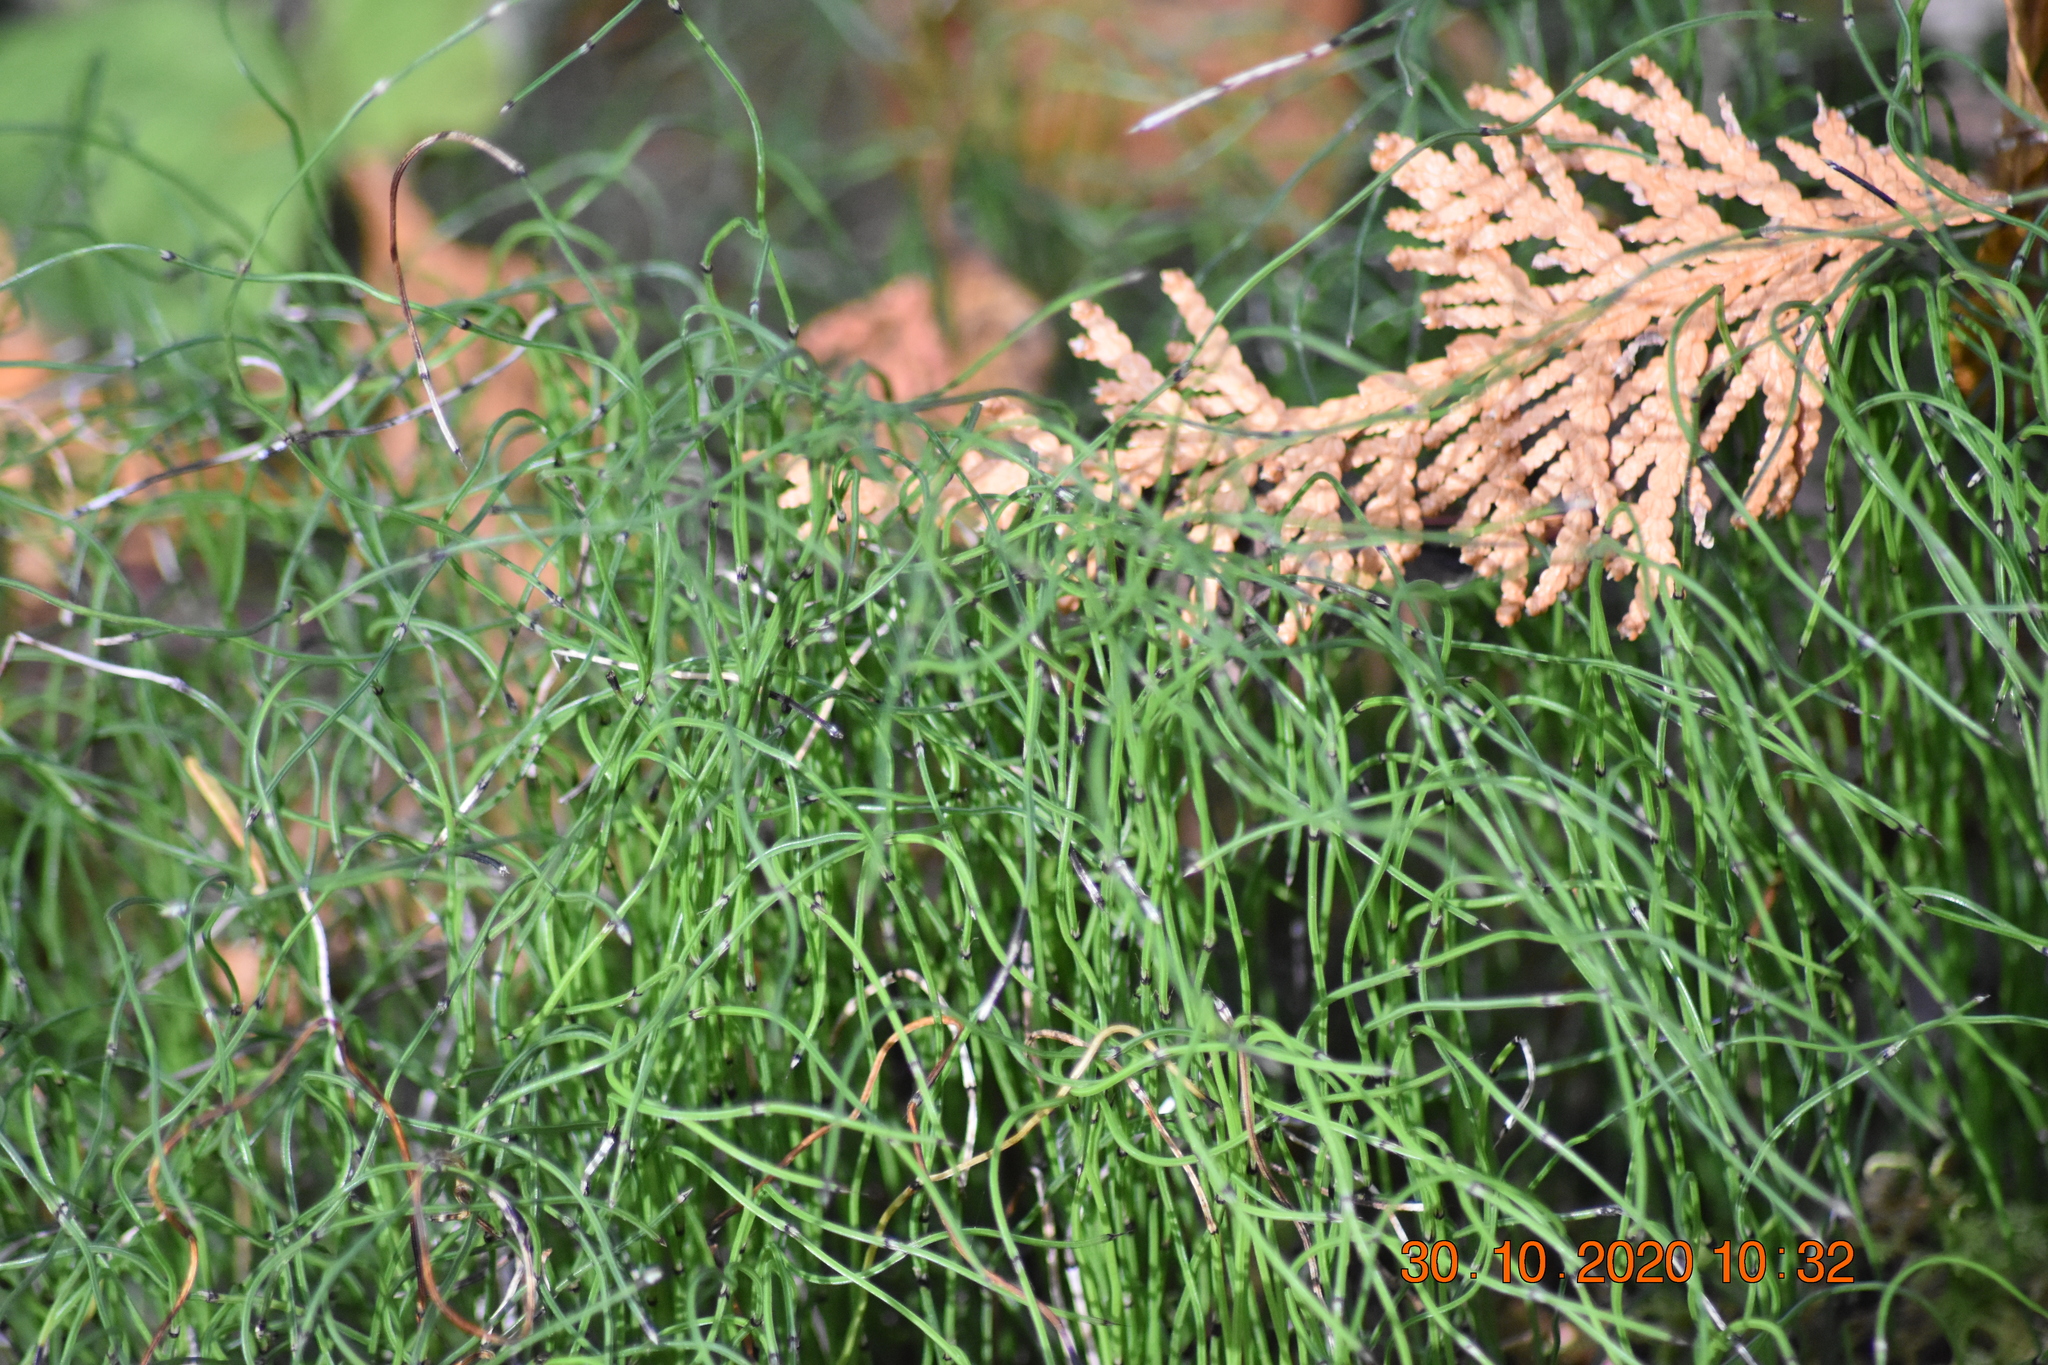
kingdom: Plantae
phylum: Tracheophyta
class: Polypodiopsida
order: Equisetales
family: Equisetaceae
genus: Equisetum
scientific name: Equisetum scirpoides
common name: Delicate horsetail
